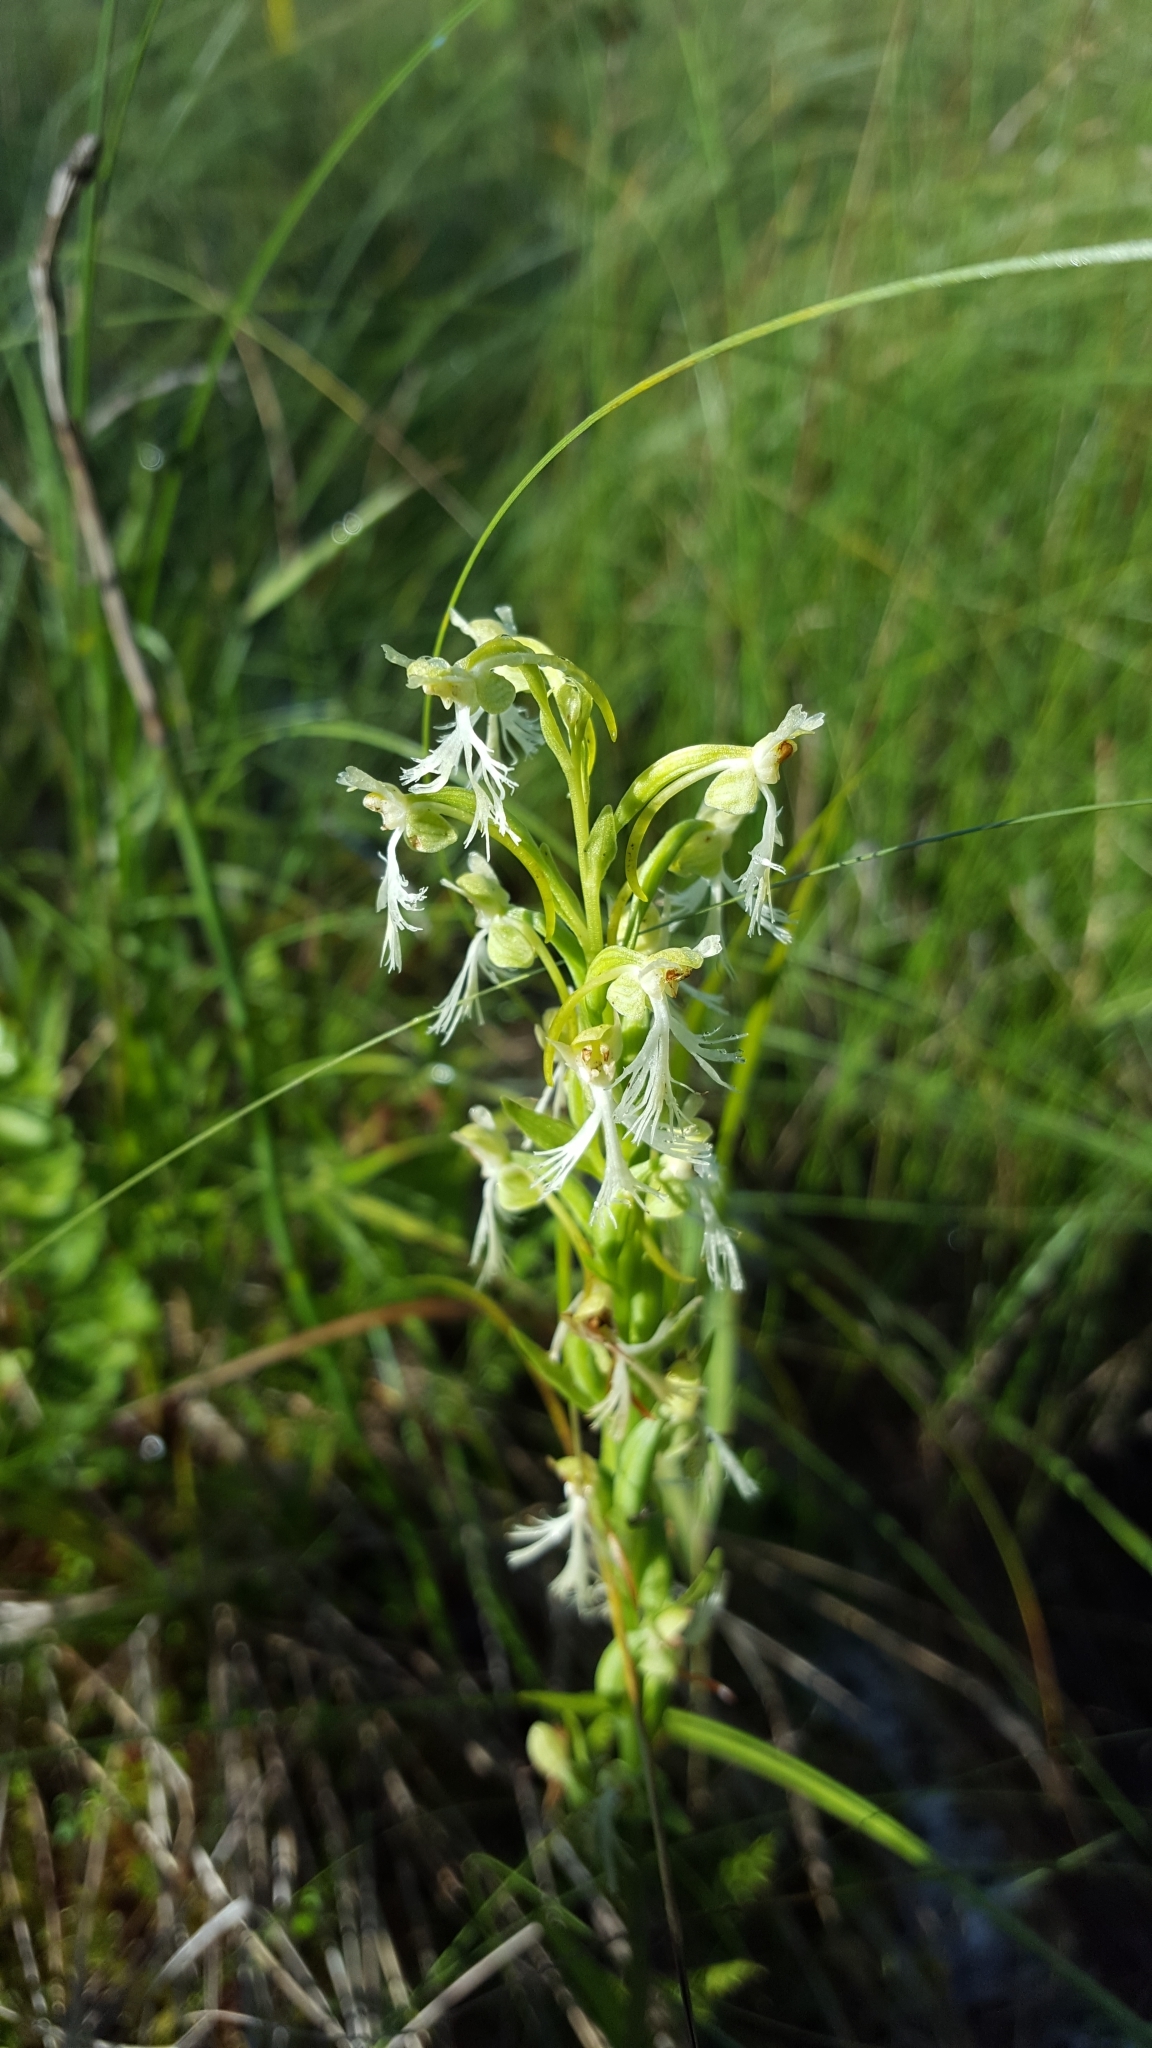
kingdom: Plantae
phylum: Tracheophyta
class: Liliopsida
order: Asparagales
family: Orchidaceae
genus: Platanthera
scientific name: Platanthera lacera
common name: Green fringed orchid
